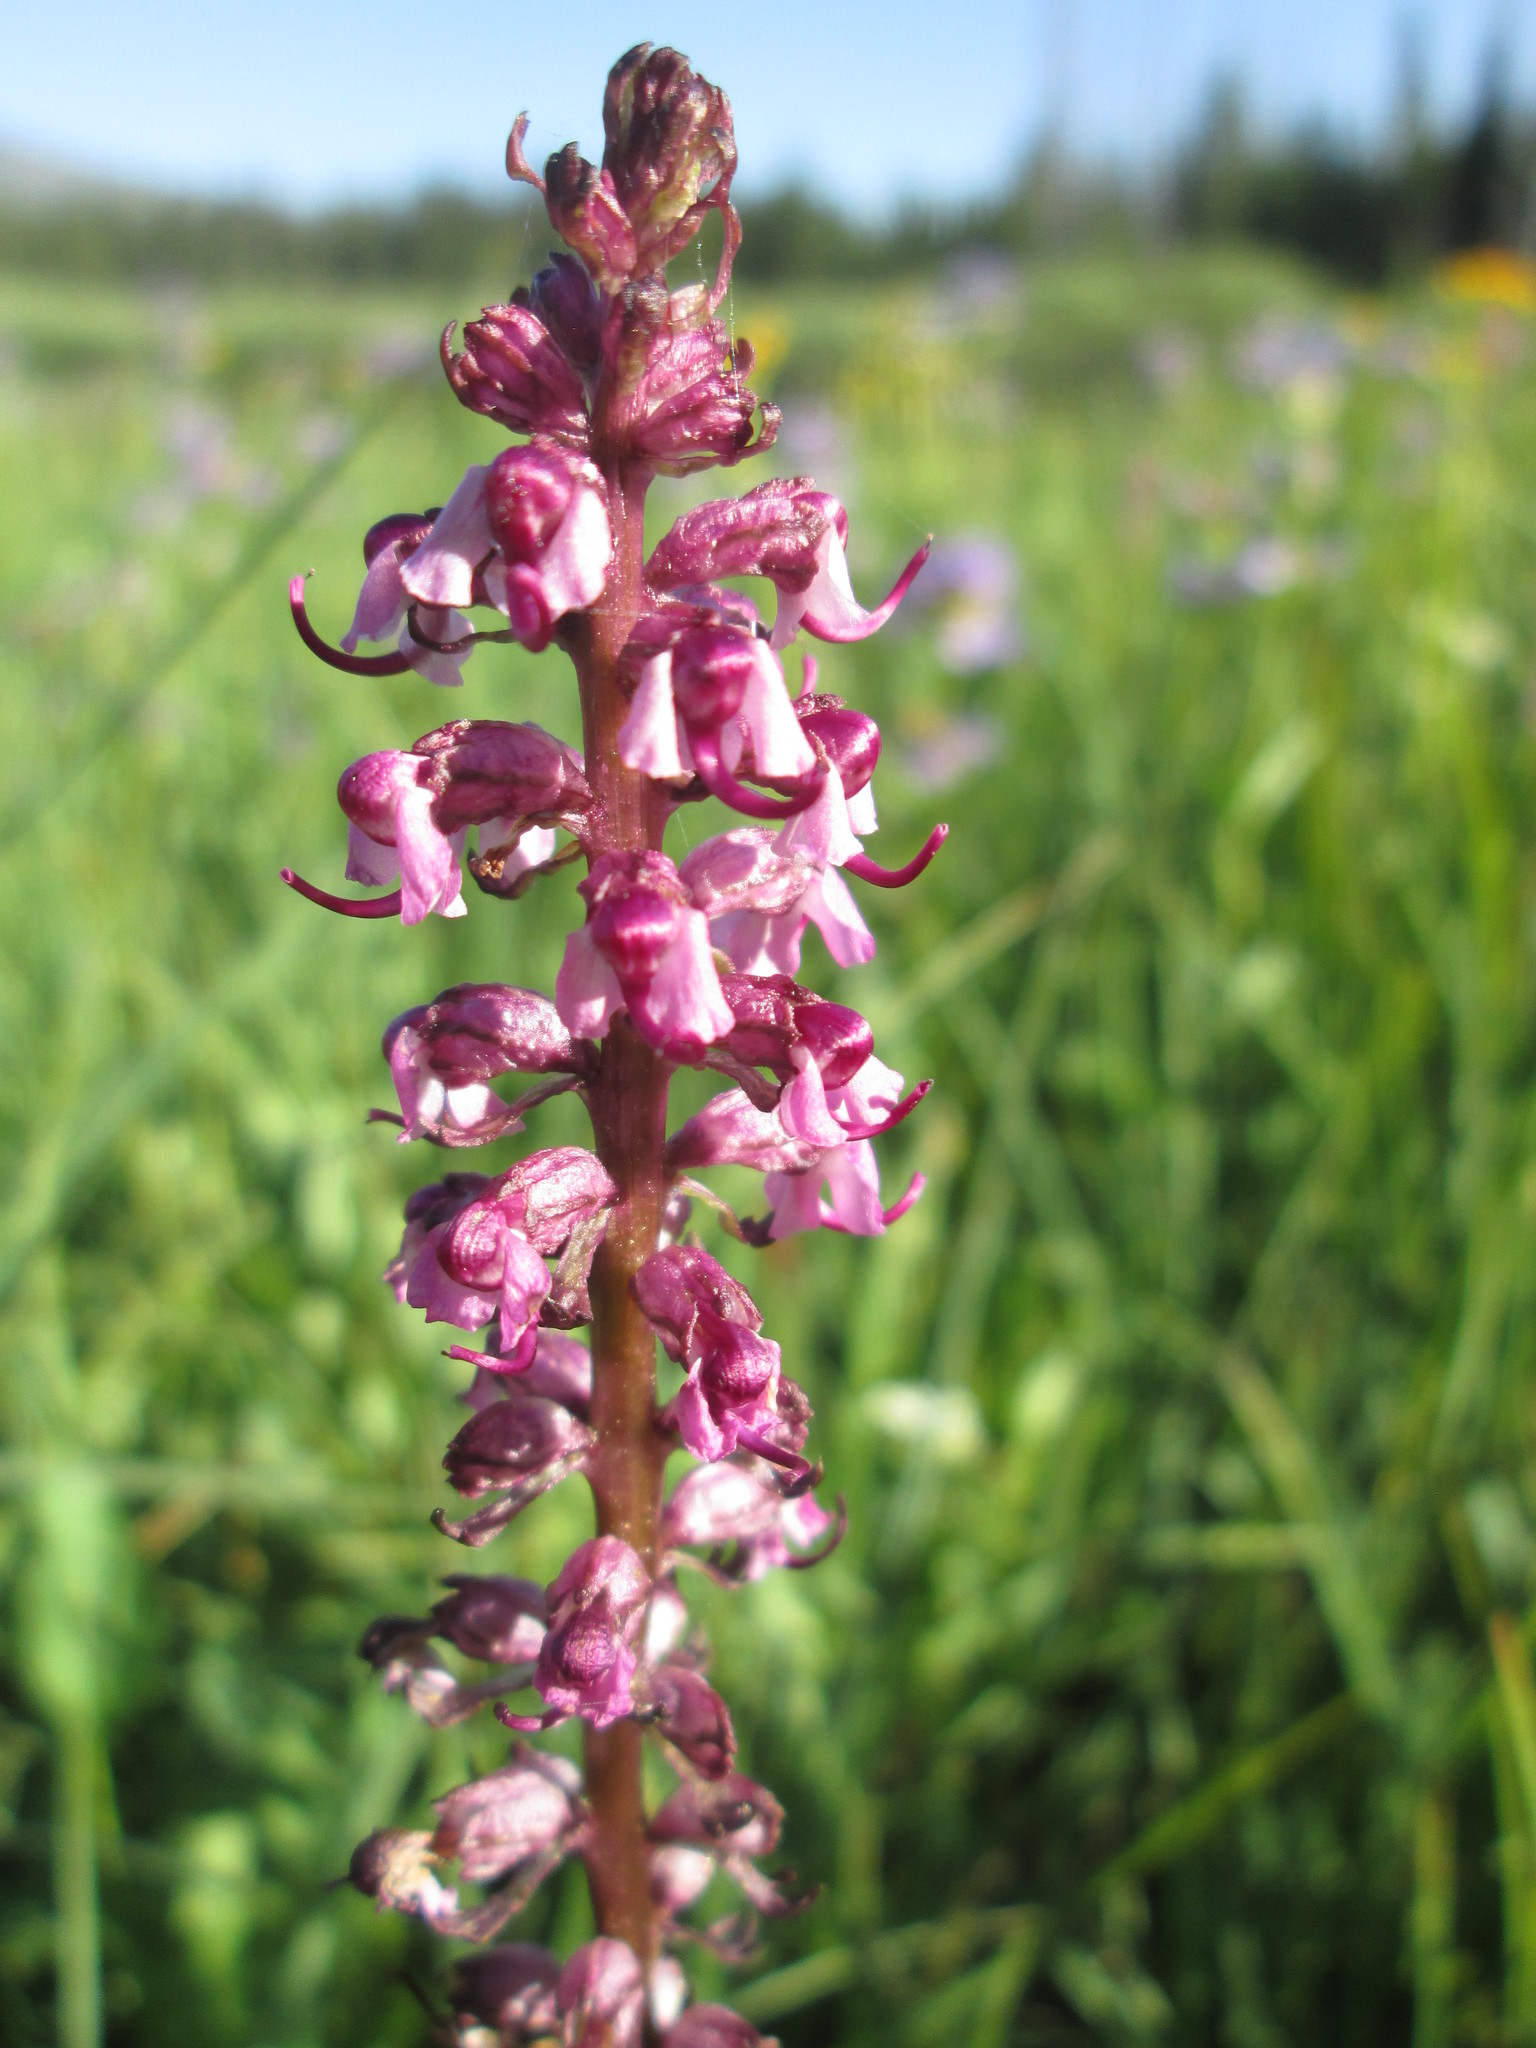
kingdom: Plantae
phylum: Tracheophyta
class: Magnoliopsida
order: Lamiales
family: Orobanchaceae
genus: Pedicularis
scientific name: Pedicularis groenlandica
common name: Elephant's-head
